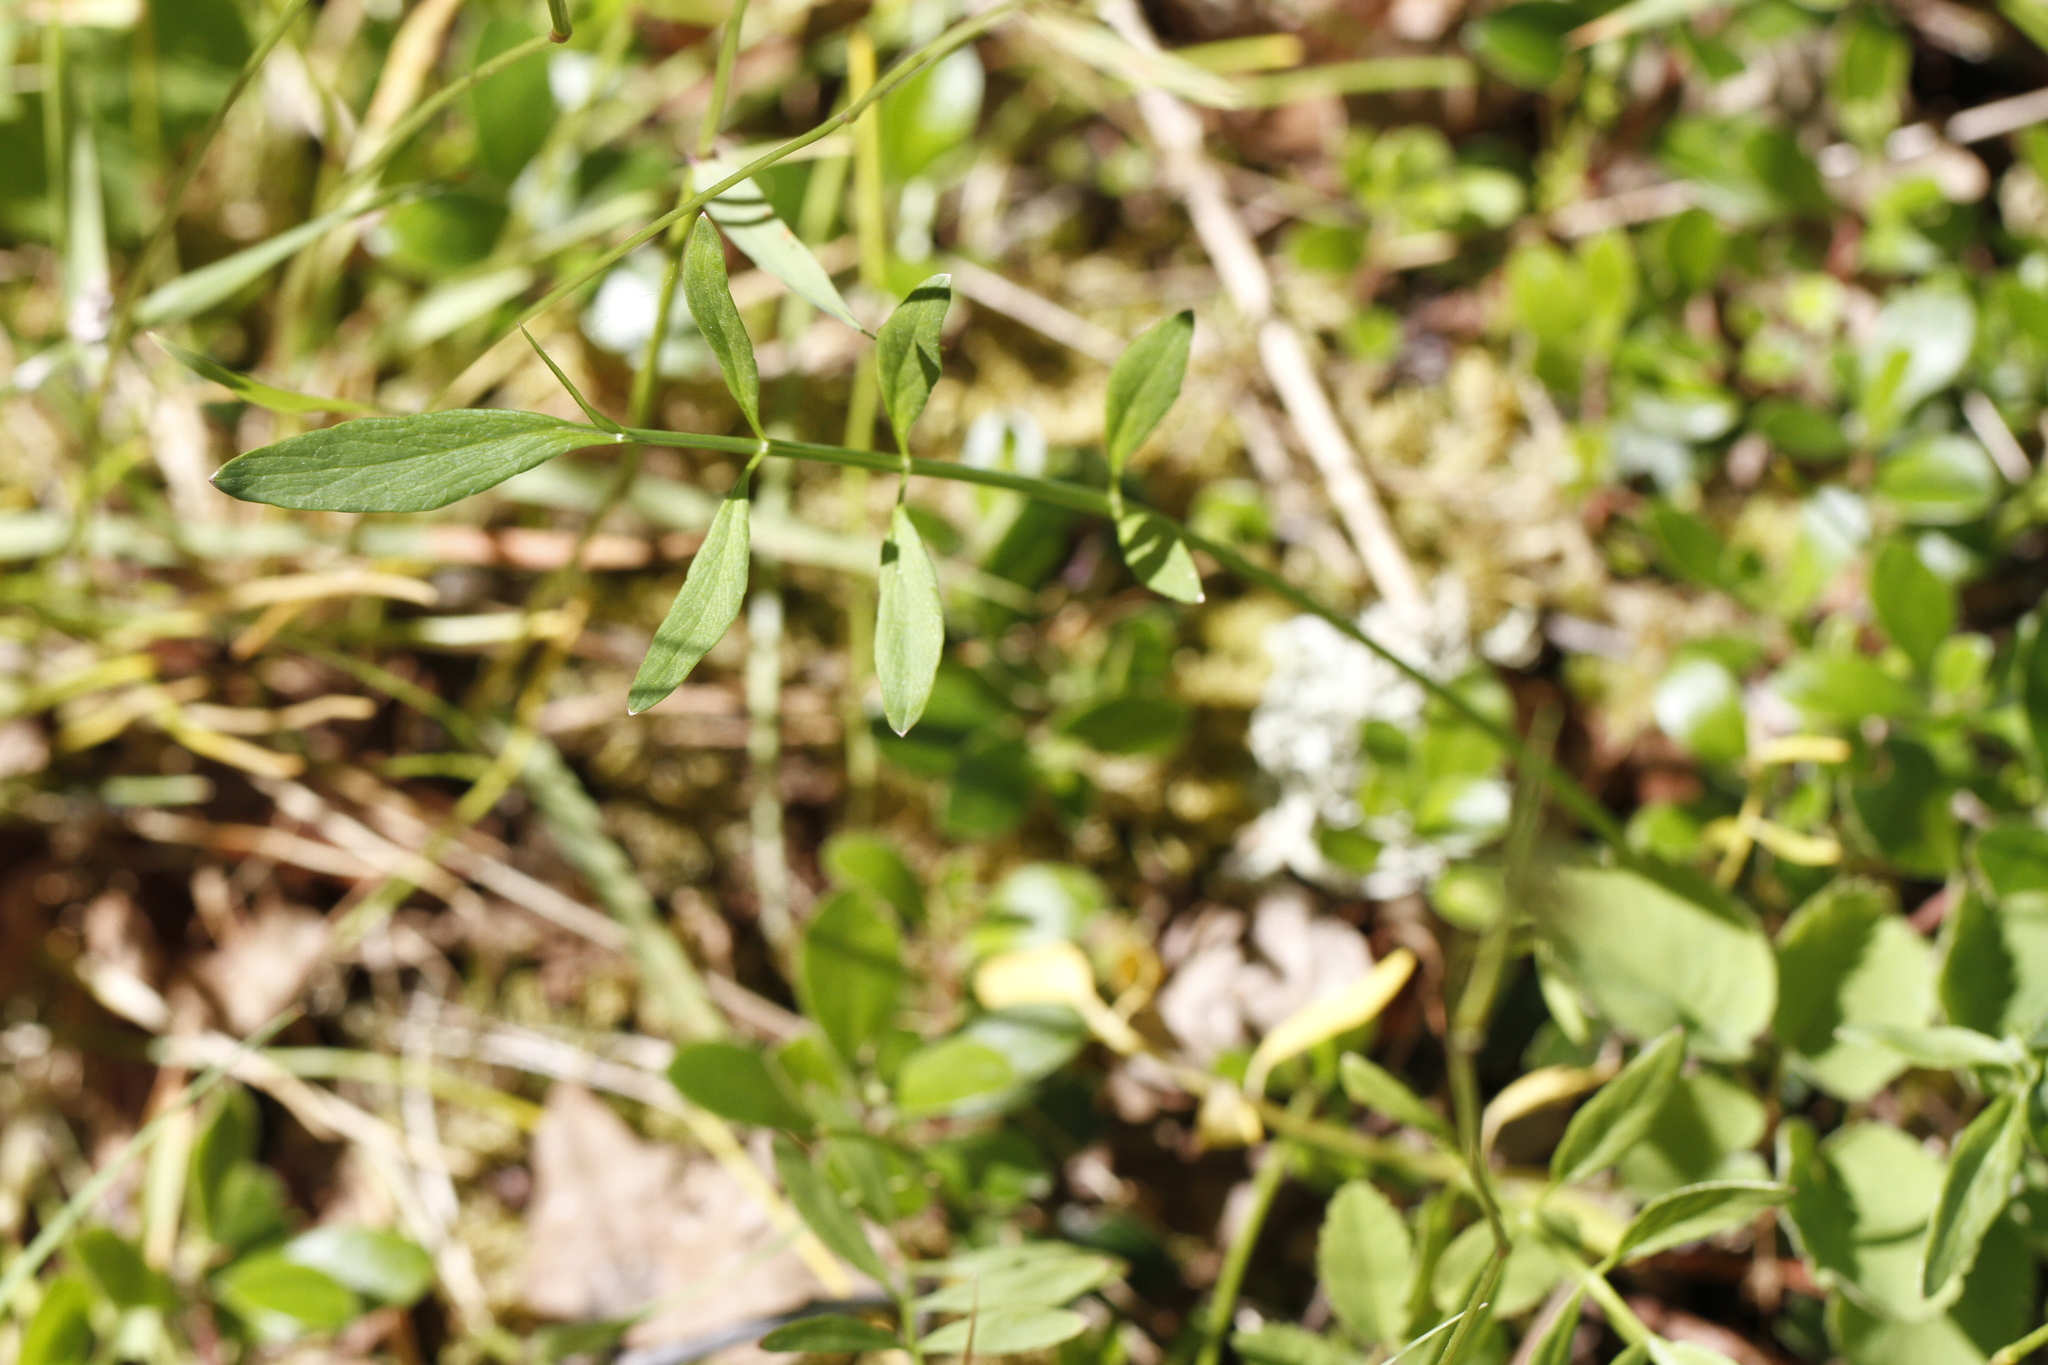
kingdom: Plantae
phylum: Tracheophyta
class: Magnoliopsida
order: Apiales
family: Apiaceae
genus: Perideridia
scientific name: Perideridia gairdneri
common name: False caraway
